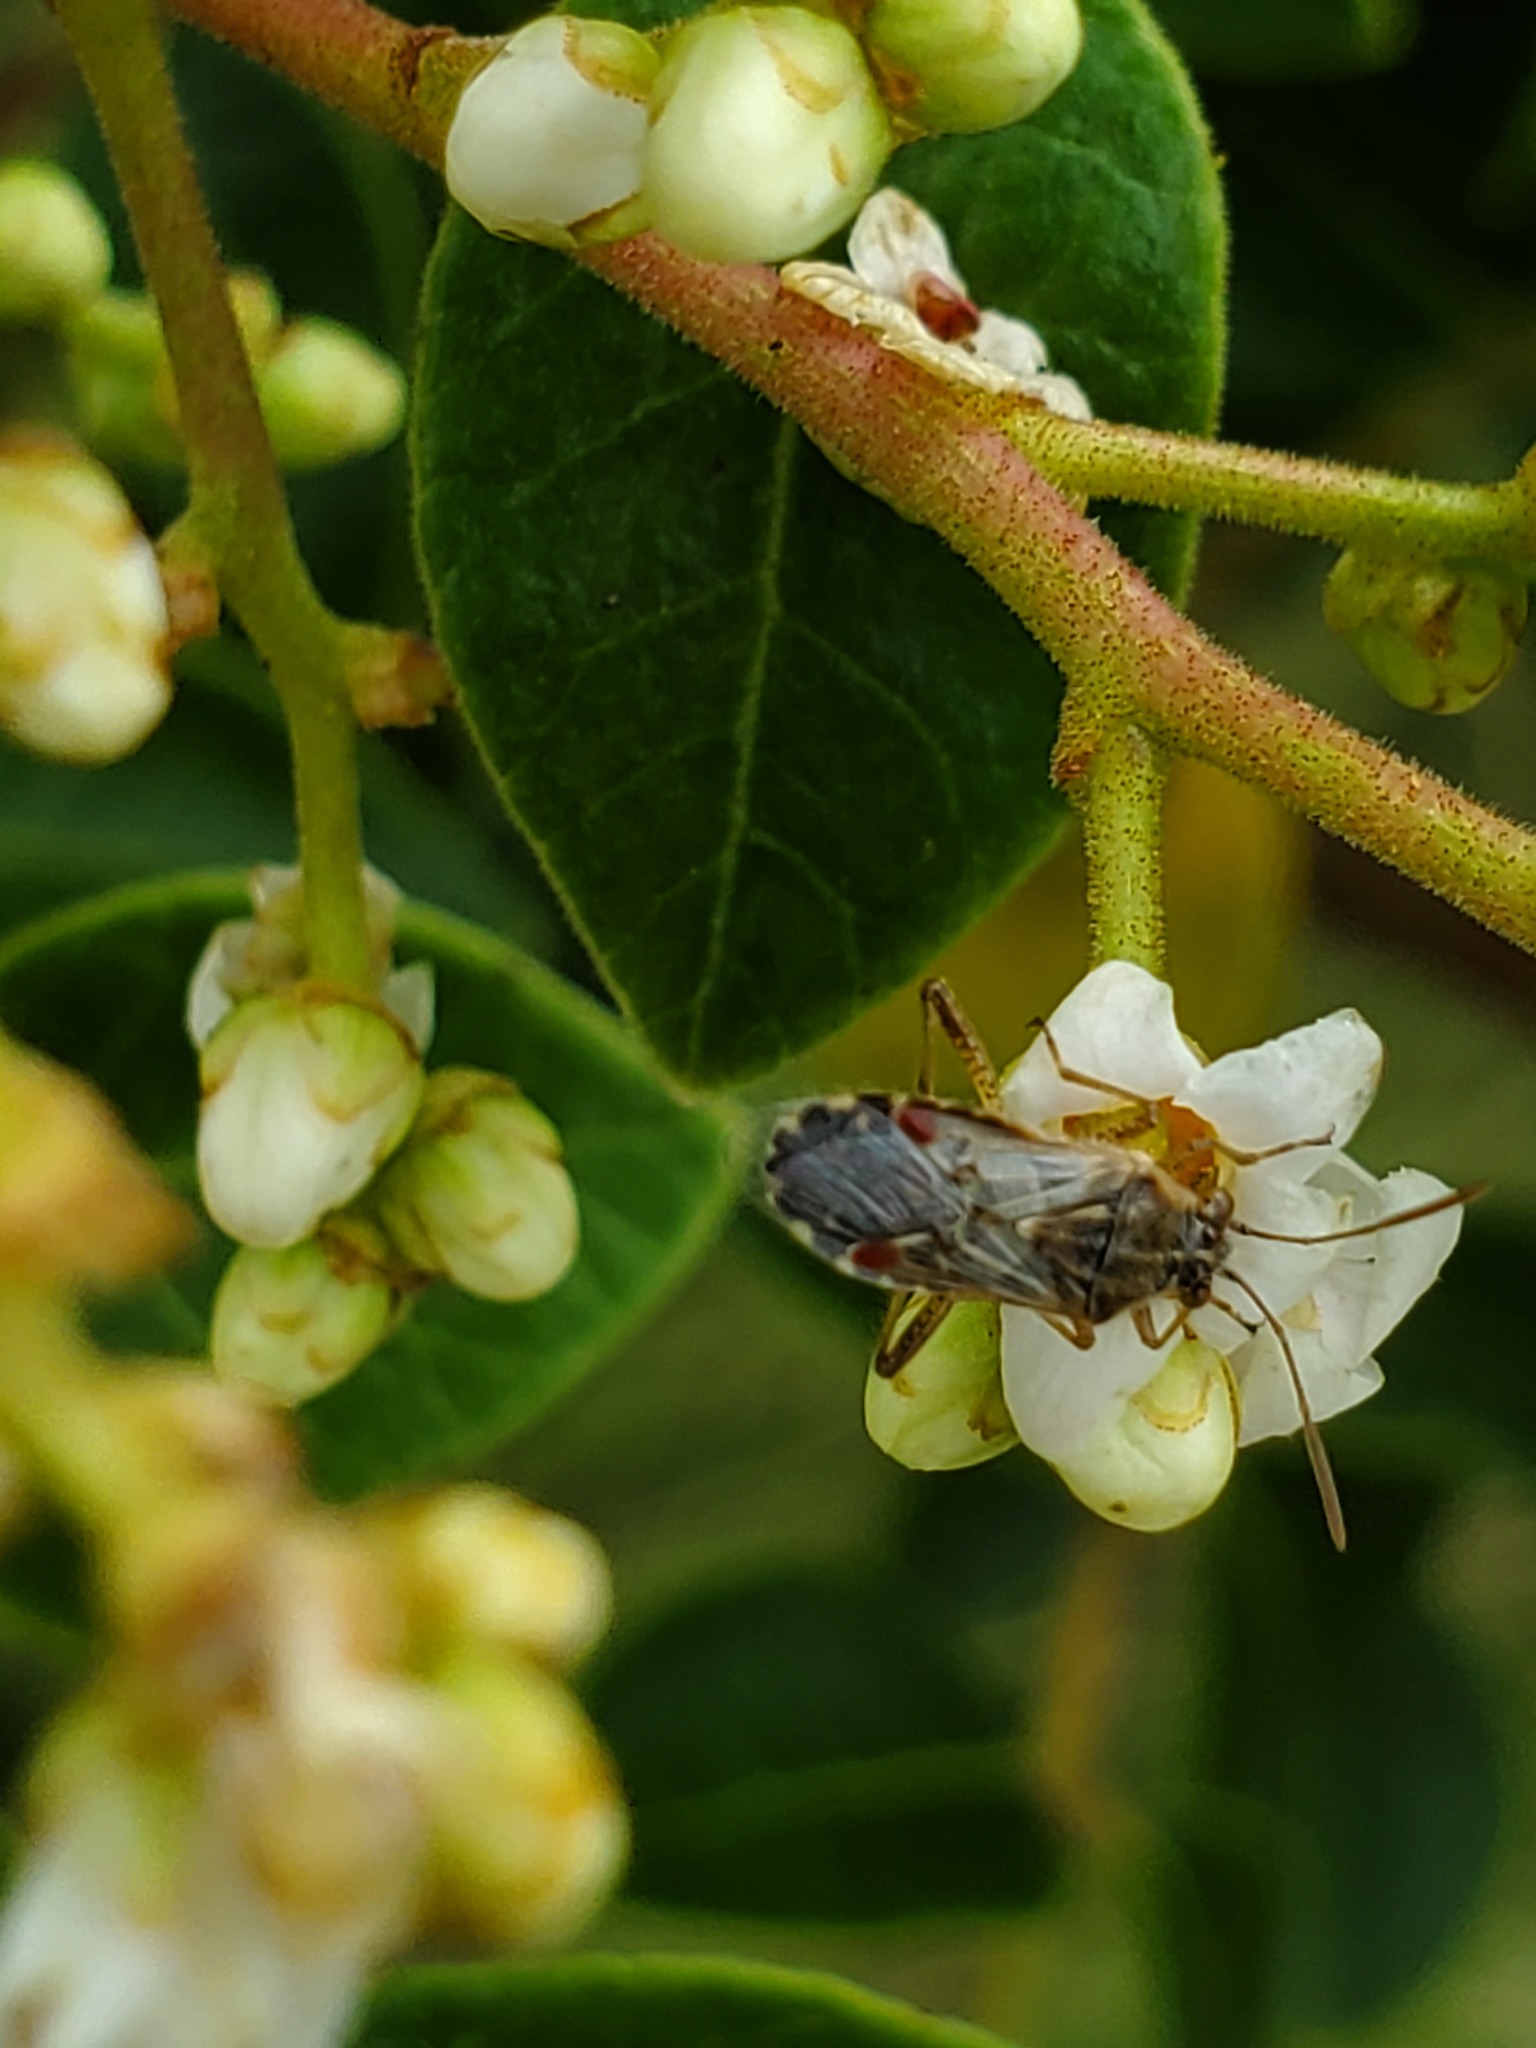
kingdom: Animalia
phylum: Arthropoda
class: Insecta
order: Hemiptera
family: Rhopalidae
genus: Liorhyssus
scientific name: Liorhyssus hyalinus
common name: Scentless plant bug
